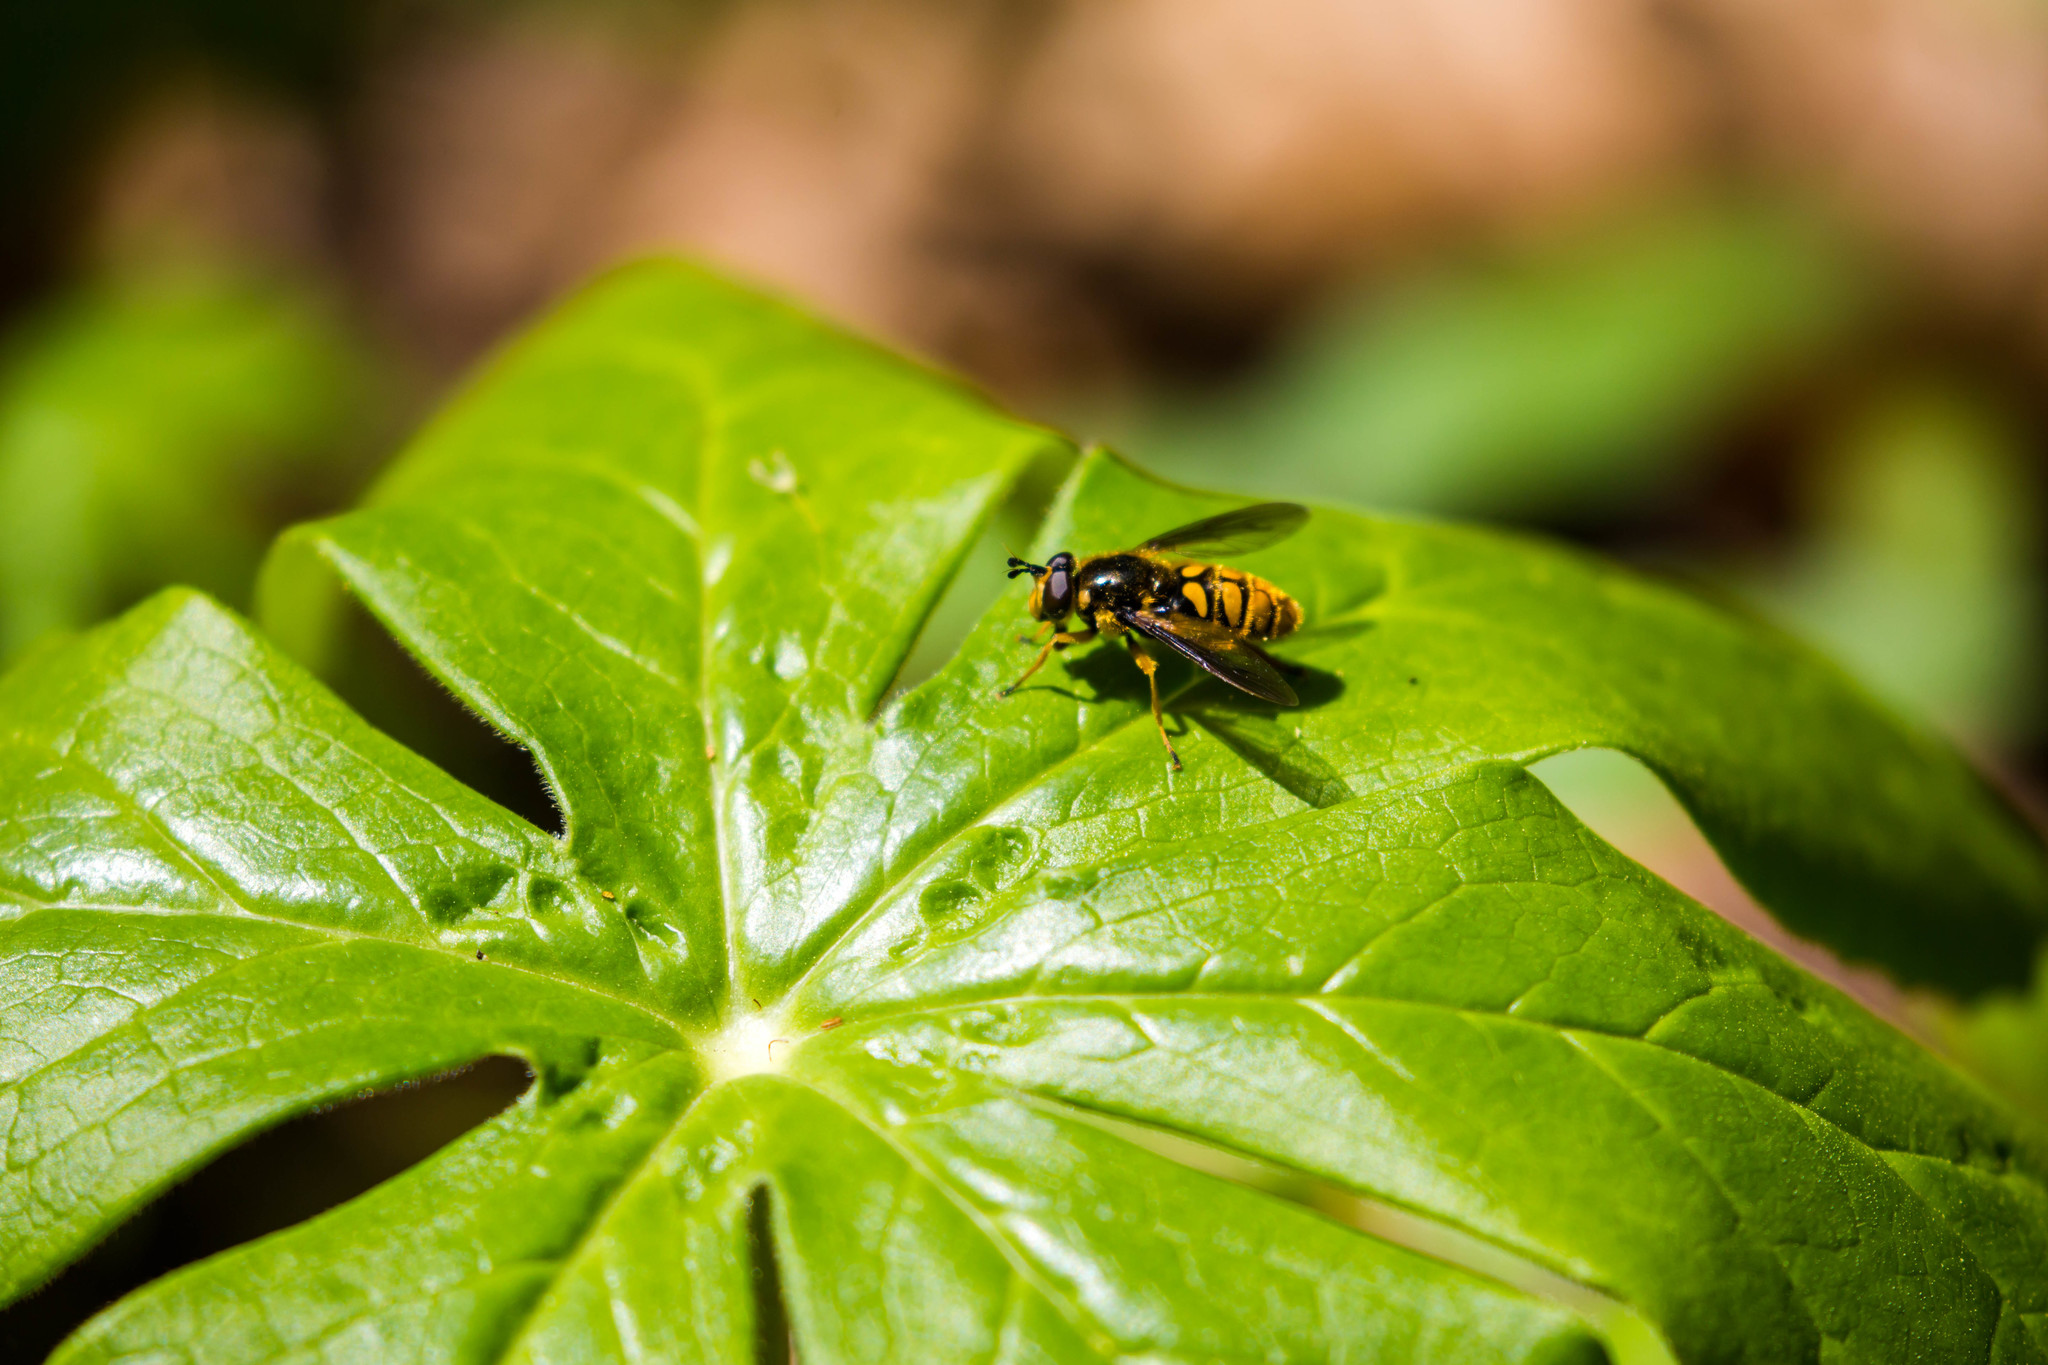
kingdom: Animalia
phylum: Arthropoda
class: Insecta
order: Diptera
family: Syrphidae
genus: Somula
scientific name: Somula decora
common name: Spotted wood fly
